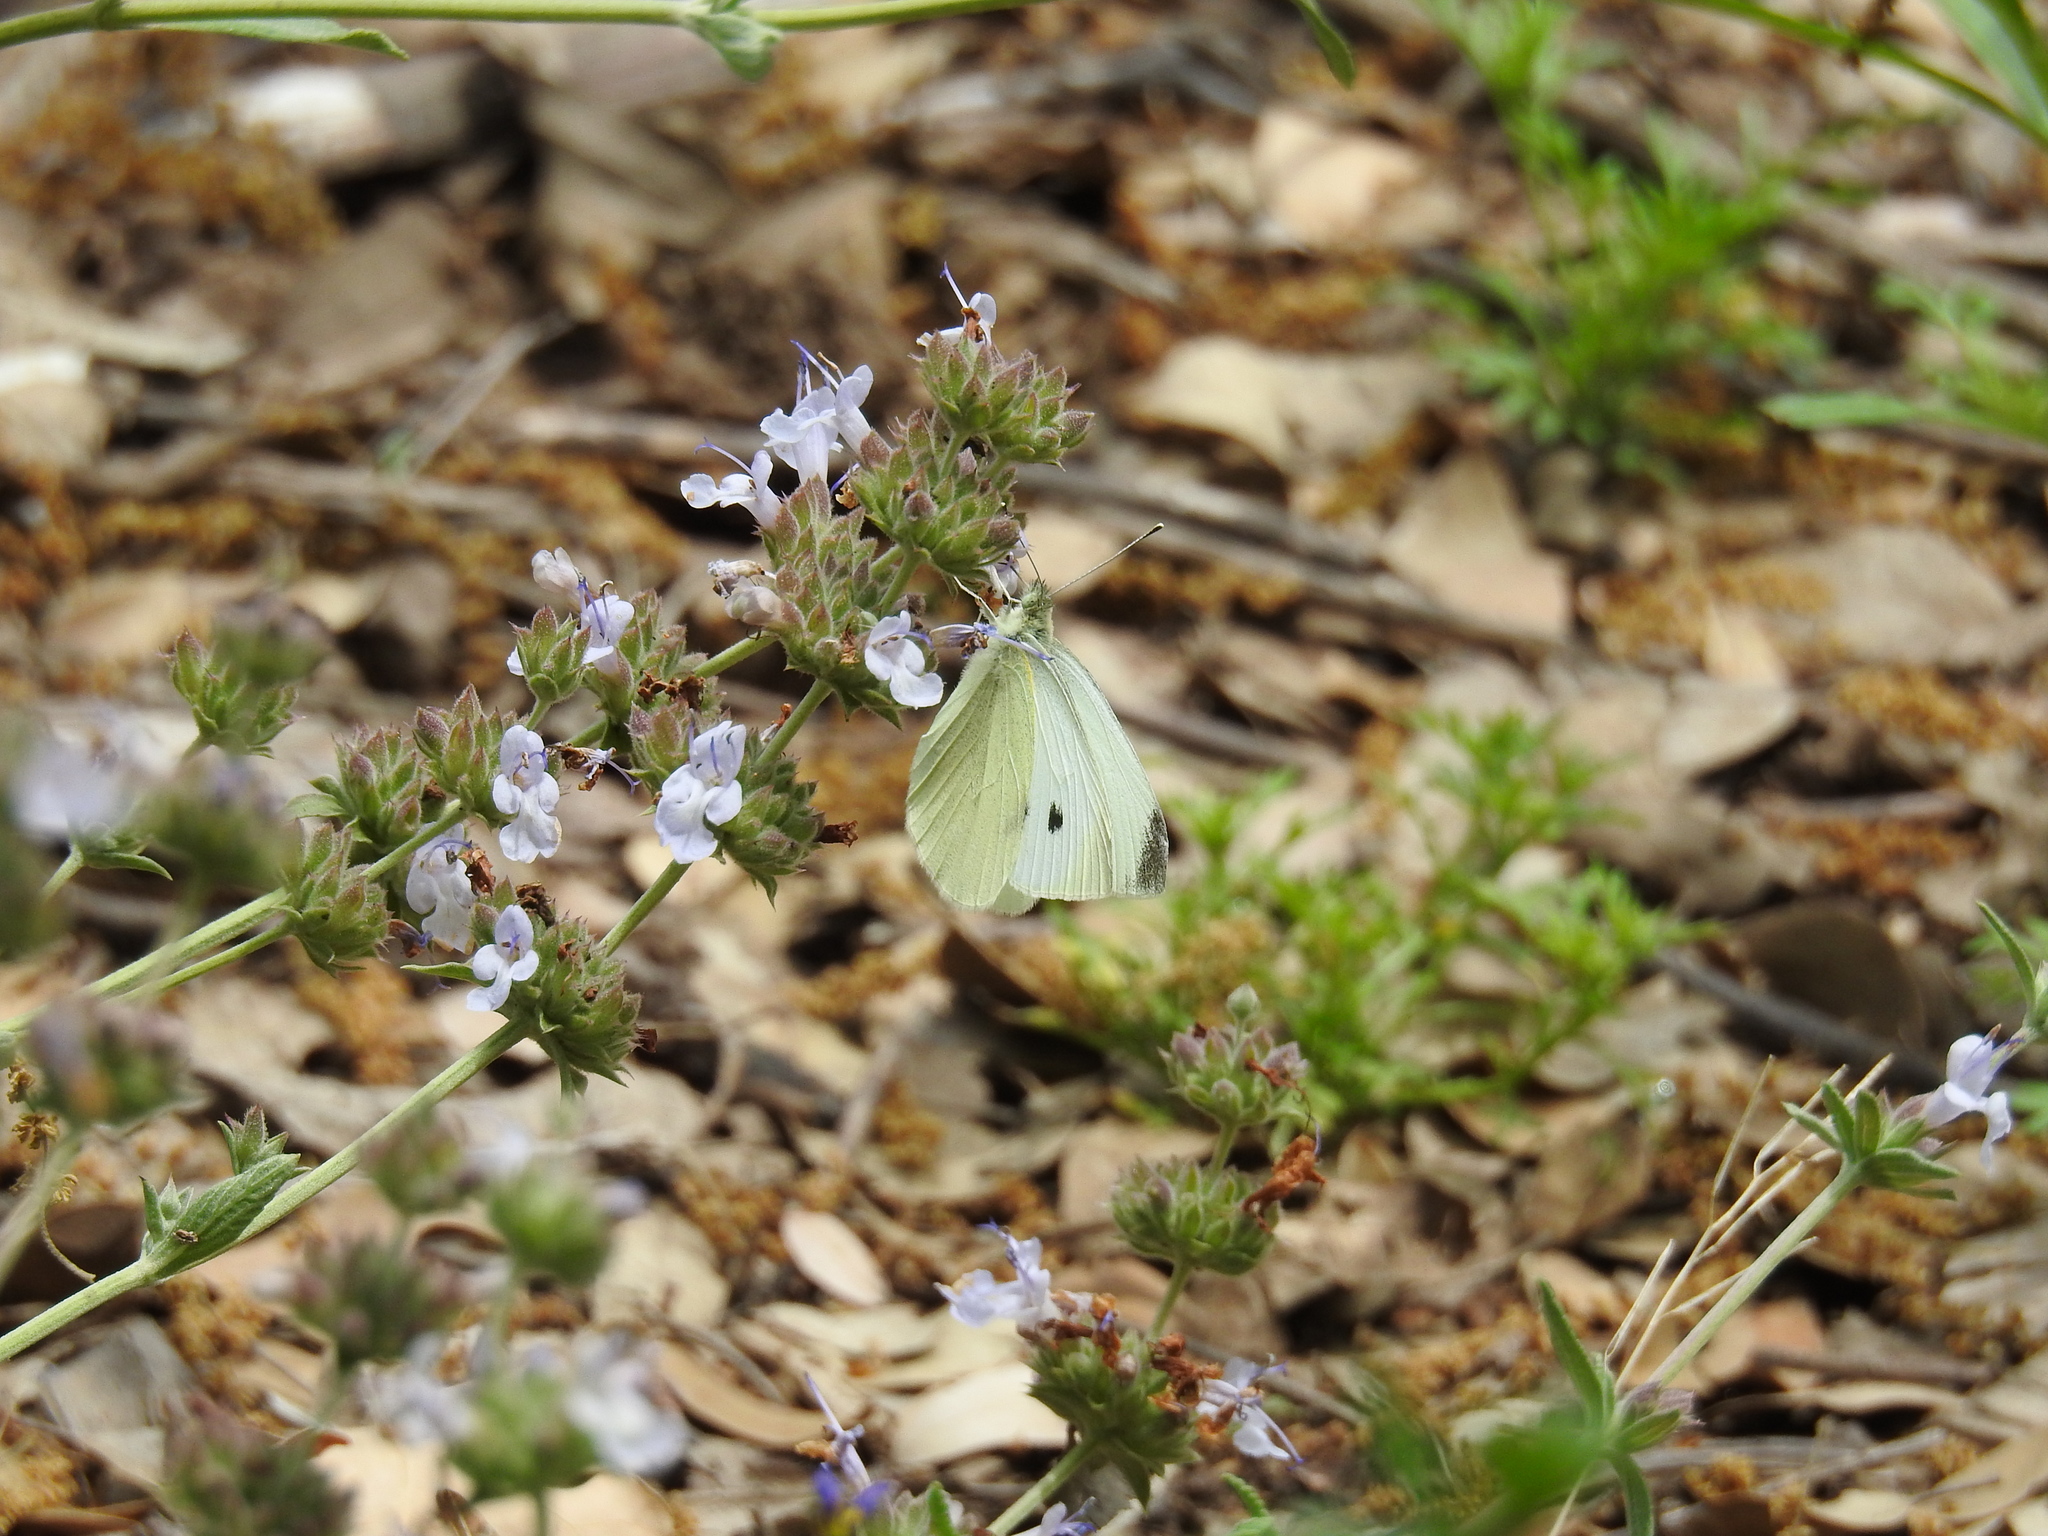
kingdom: Animalia
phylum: Arthropoda
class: Insecta
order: Lepidoptera
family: Pieridae
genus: Pieris
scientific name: Pieris rapae
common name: Small white
